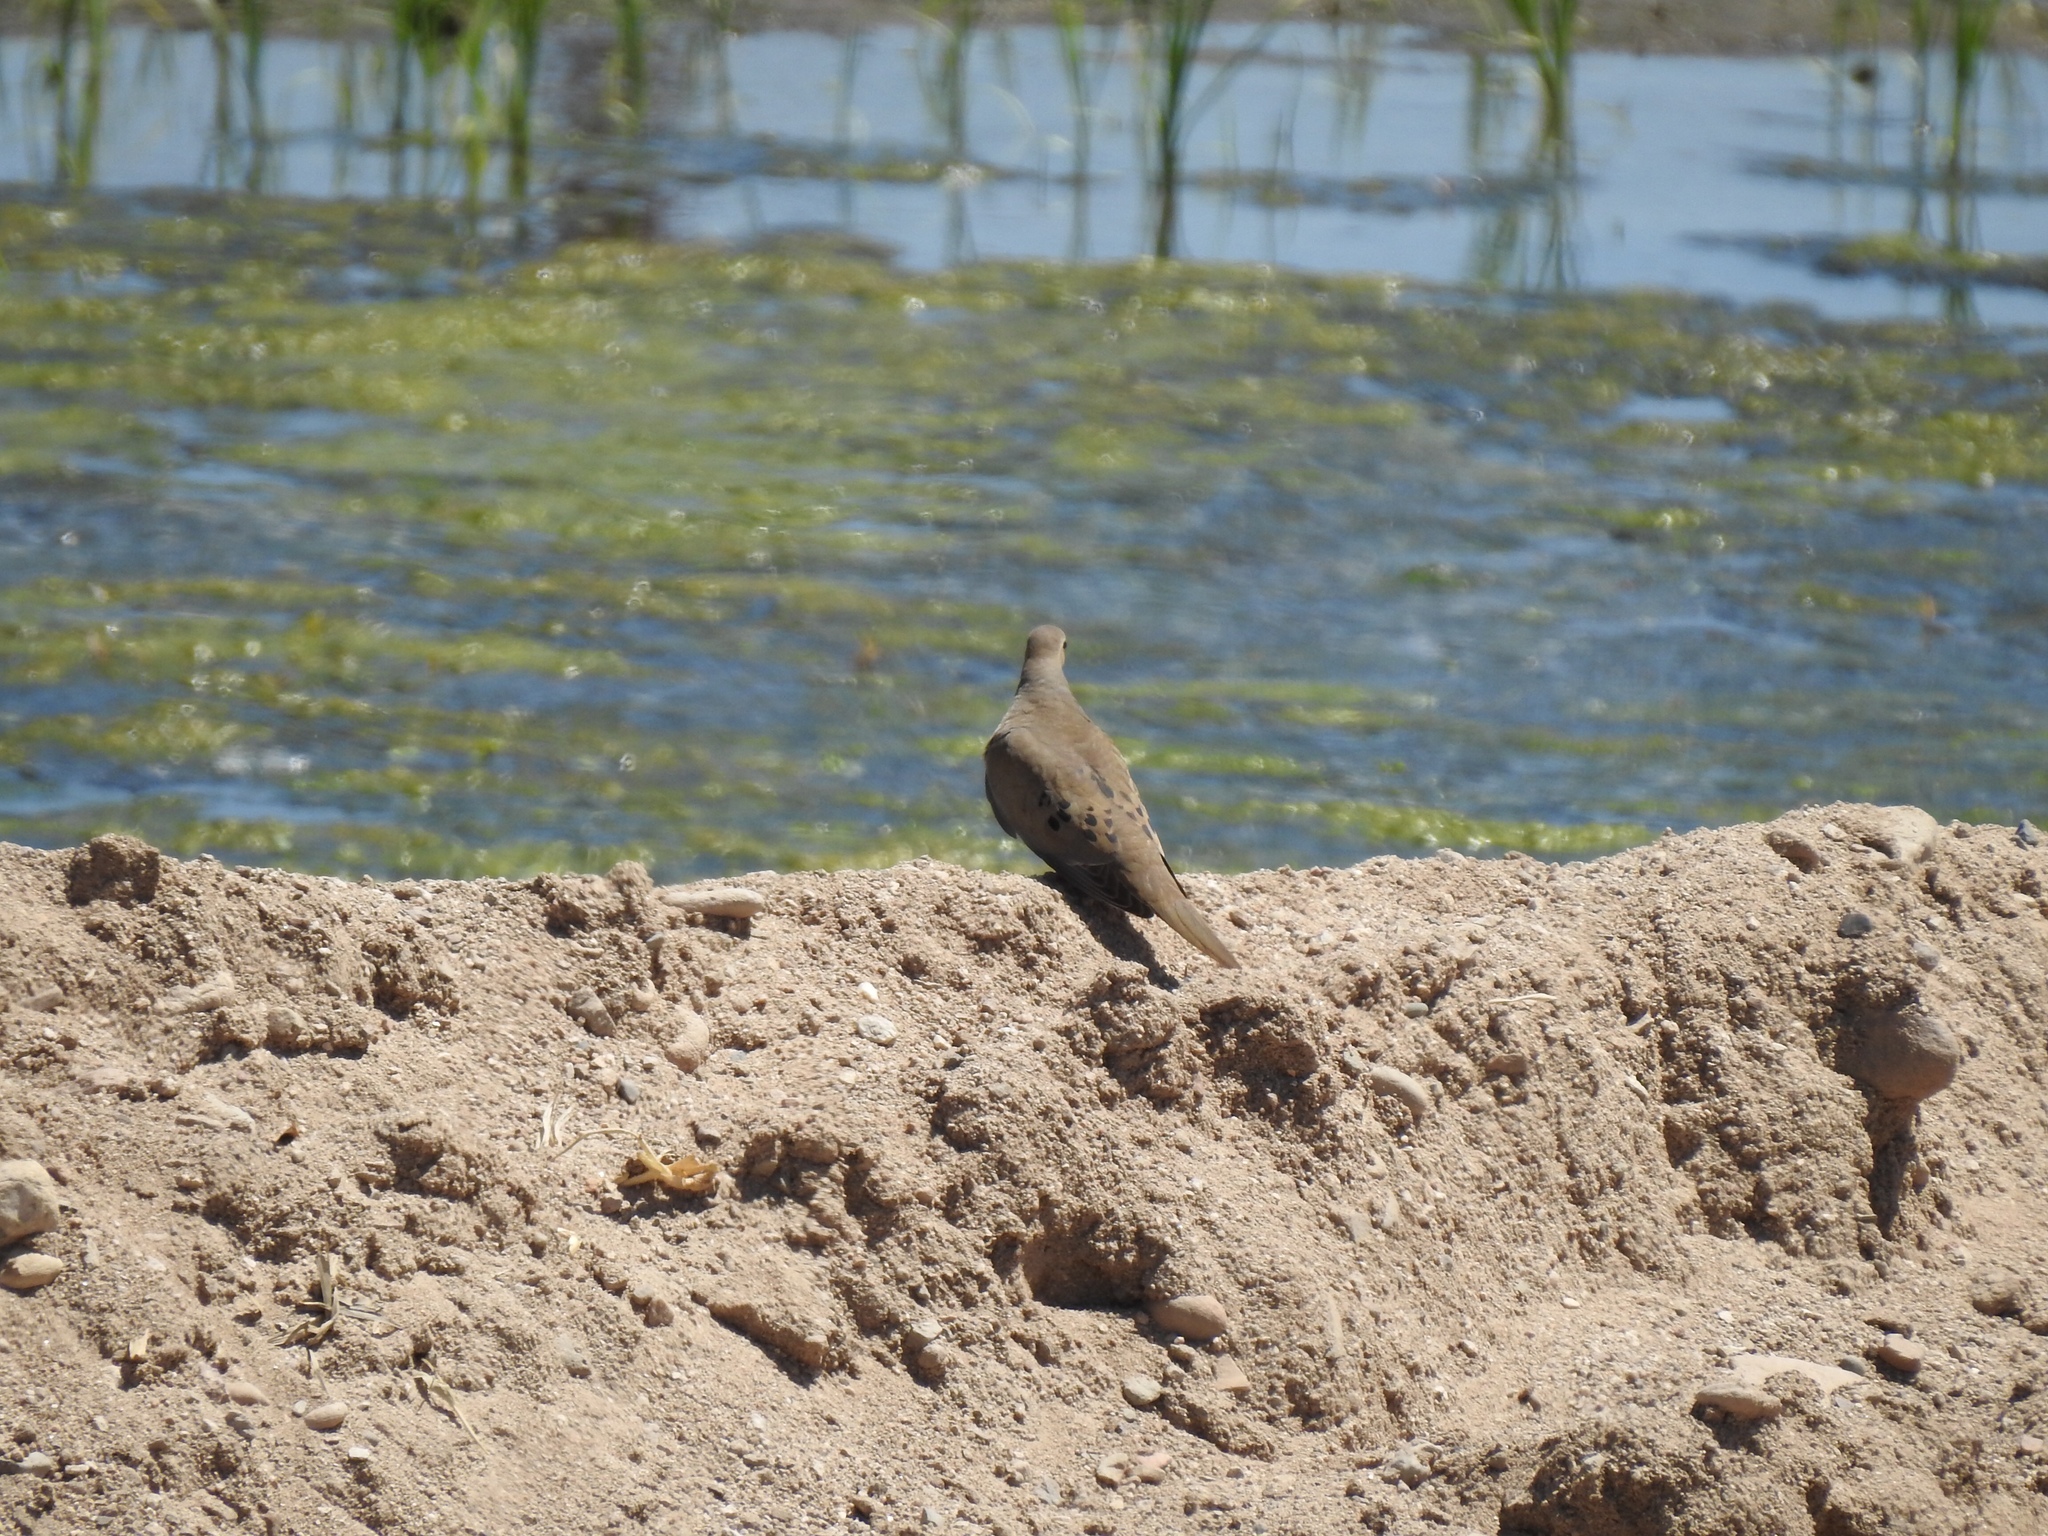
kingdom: Animalia
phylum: Chordata
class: Aves
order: Columbiformes
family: Columbidae
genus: Zenaida
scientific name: Zenaida macroura
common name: Mourning dove
